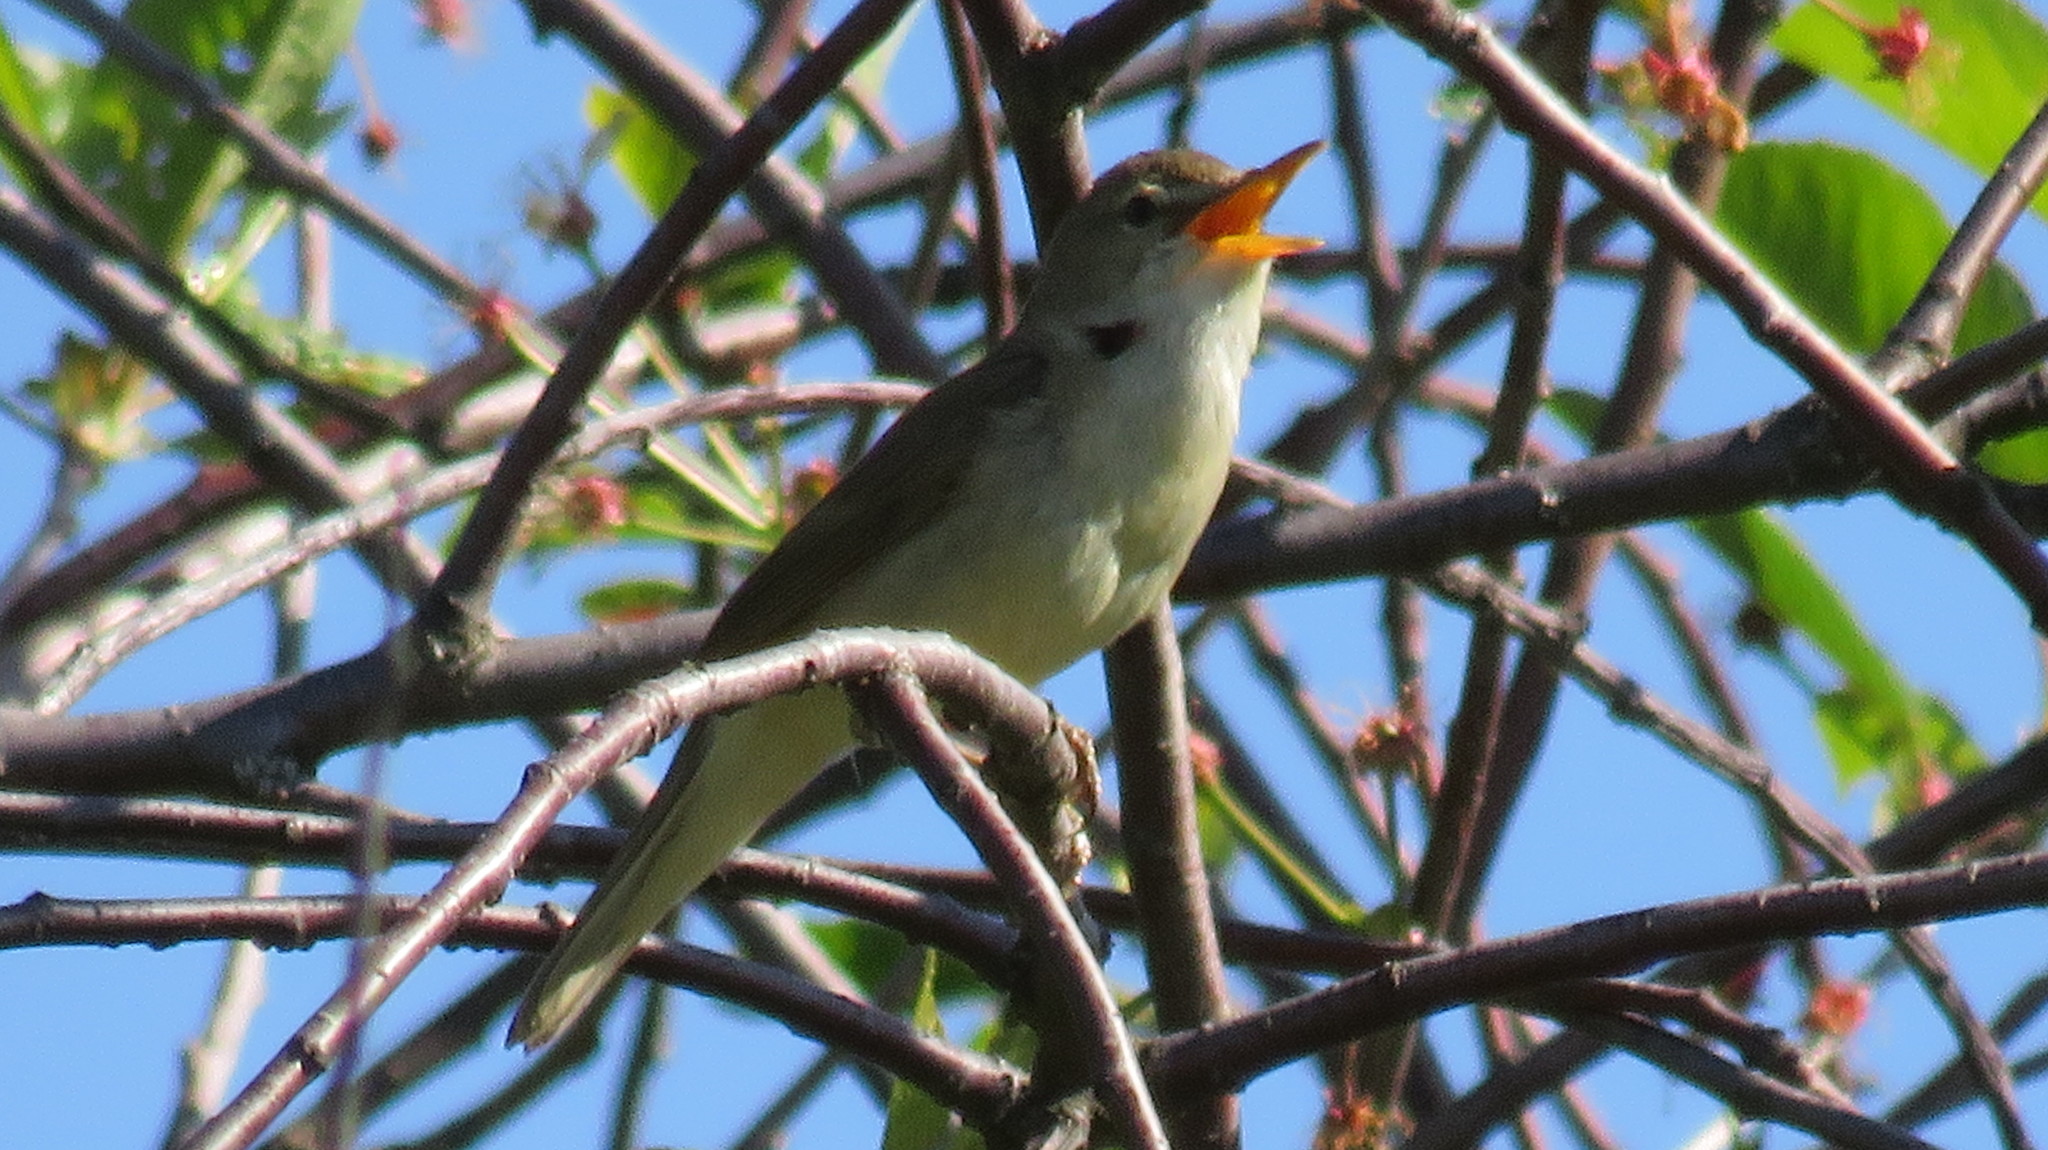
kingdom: Animalia
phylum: Chordata
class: Aves
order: Passeriformes
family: Acrocephalidae
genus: Acrocephalus
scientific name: Acrocephalus dumetorum
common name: Blyth's reed warbler
